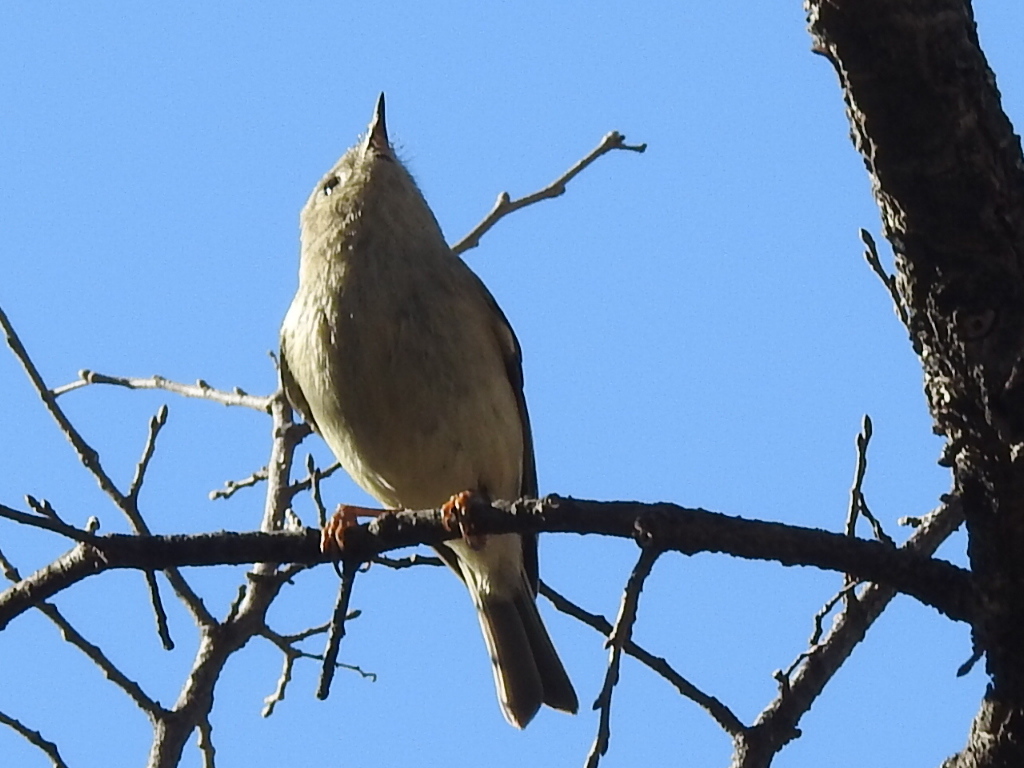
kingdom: Animalia
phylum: Chordata
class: Aves
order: Passeriformes
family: Regulidae
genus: Regulus
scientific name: Regulus calendula
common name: Ruby-crowned kinglet
